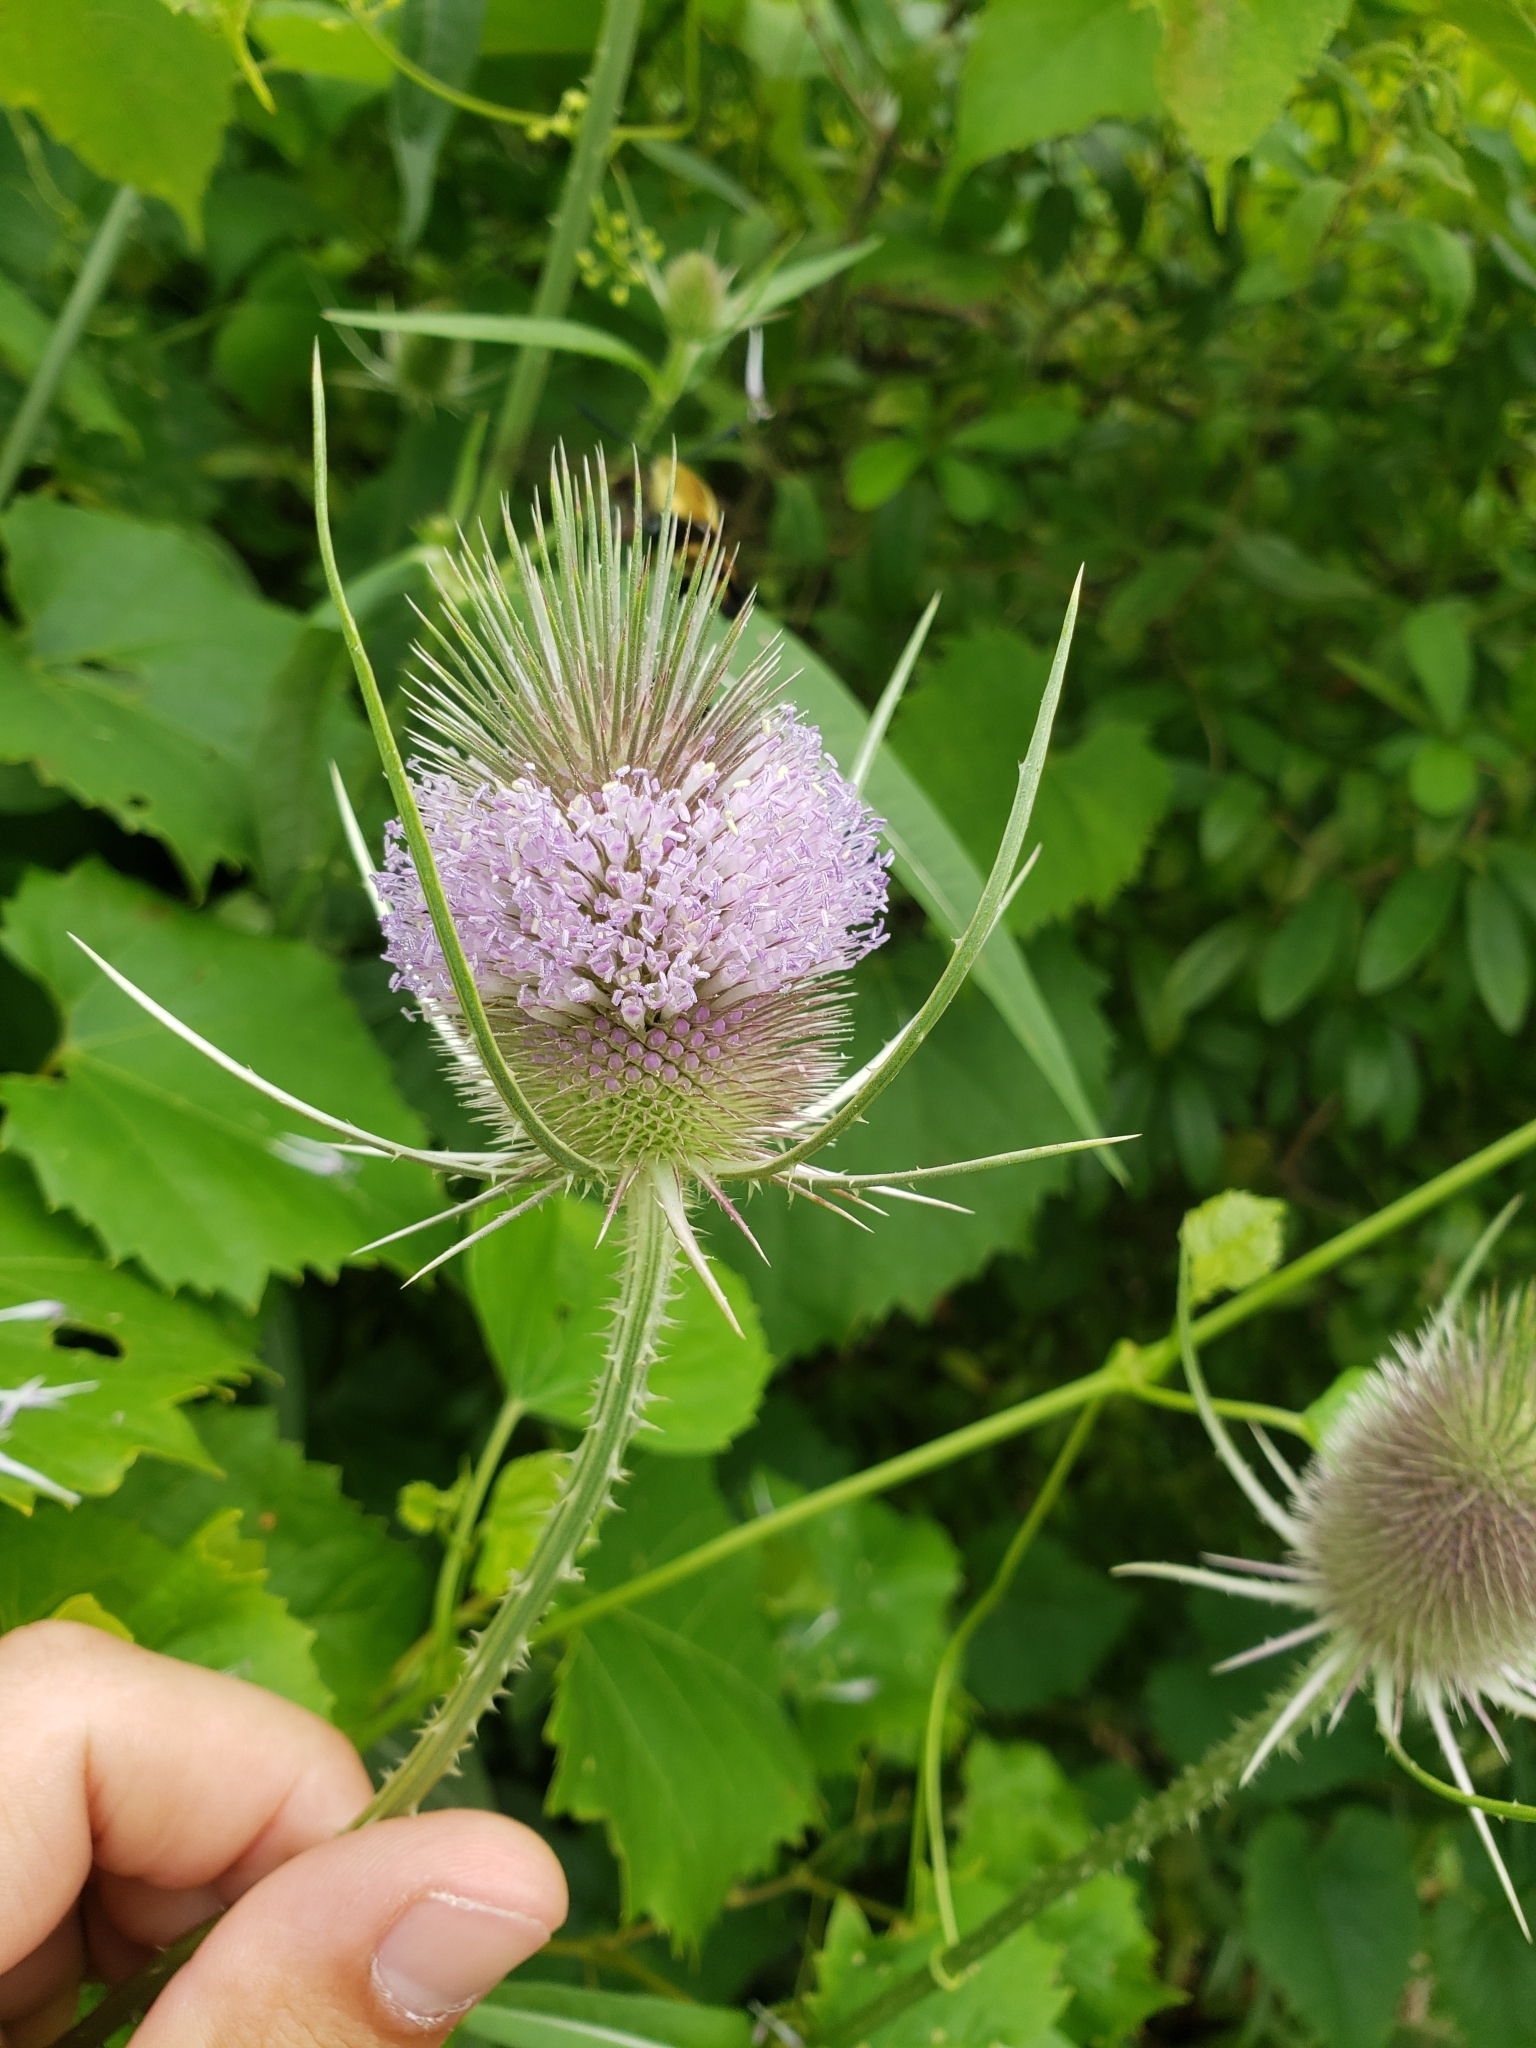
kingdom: Plantae
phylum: Tracheophyta
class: Magnoliopsida
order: Dipsacales
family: Caprifoliaceae
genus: Dipsacus
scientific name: Dipsacus fullonum
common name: Teasel
